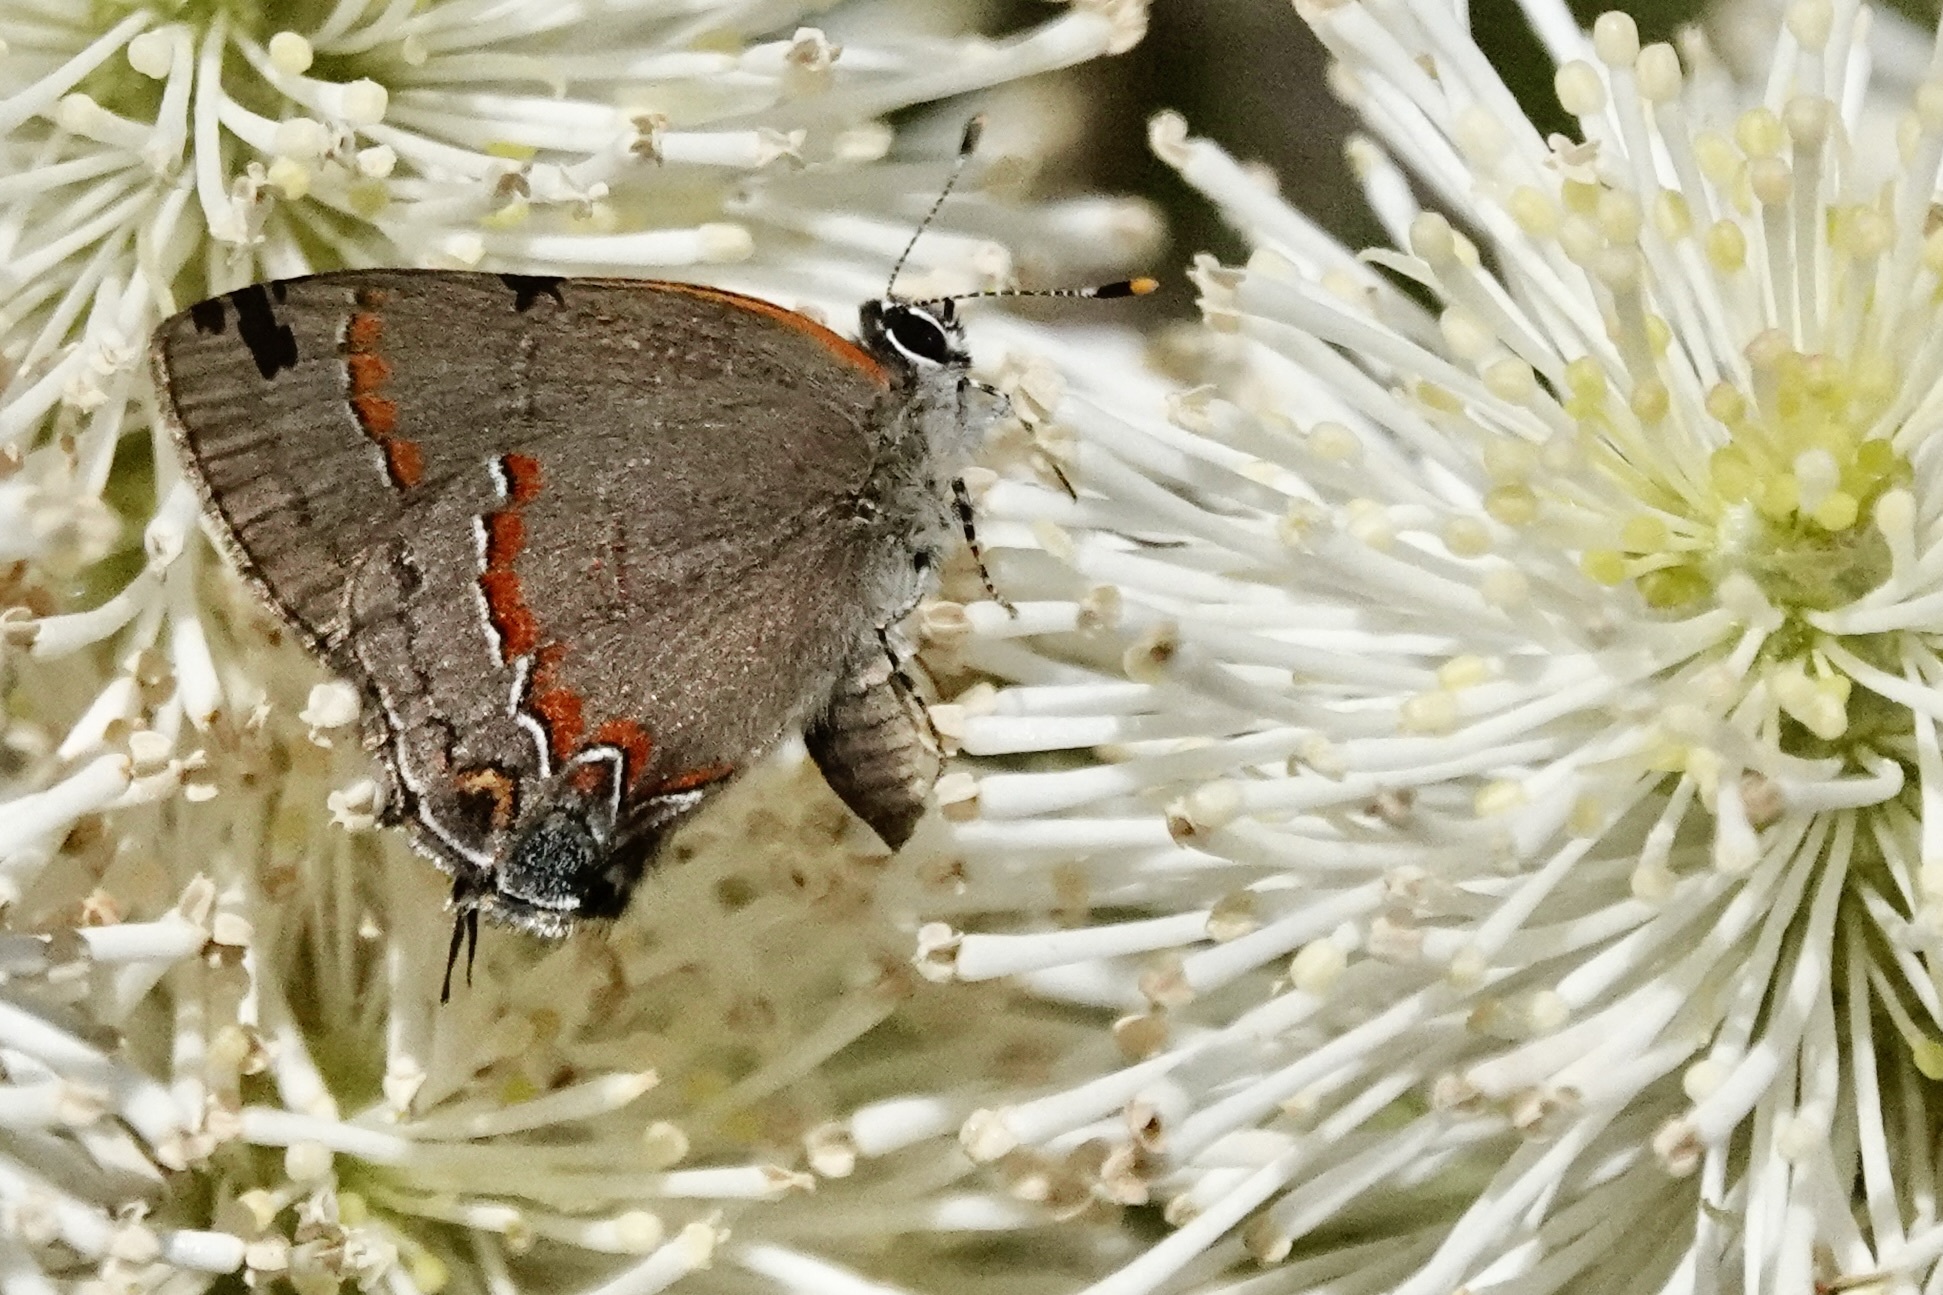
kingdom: Animalia
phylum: Arthropoda
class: Insecta
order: Lepidoptera
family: Lycaenidae
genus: Calycopis
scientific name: Calycopis cecrops
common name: Red-banded hairstreak
